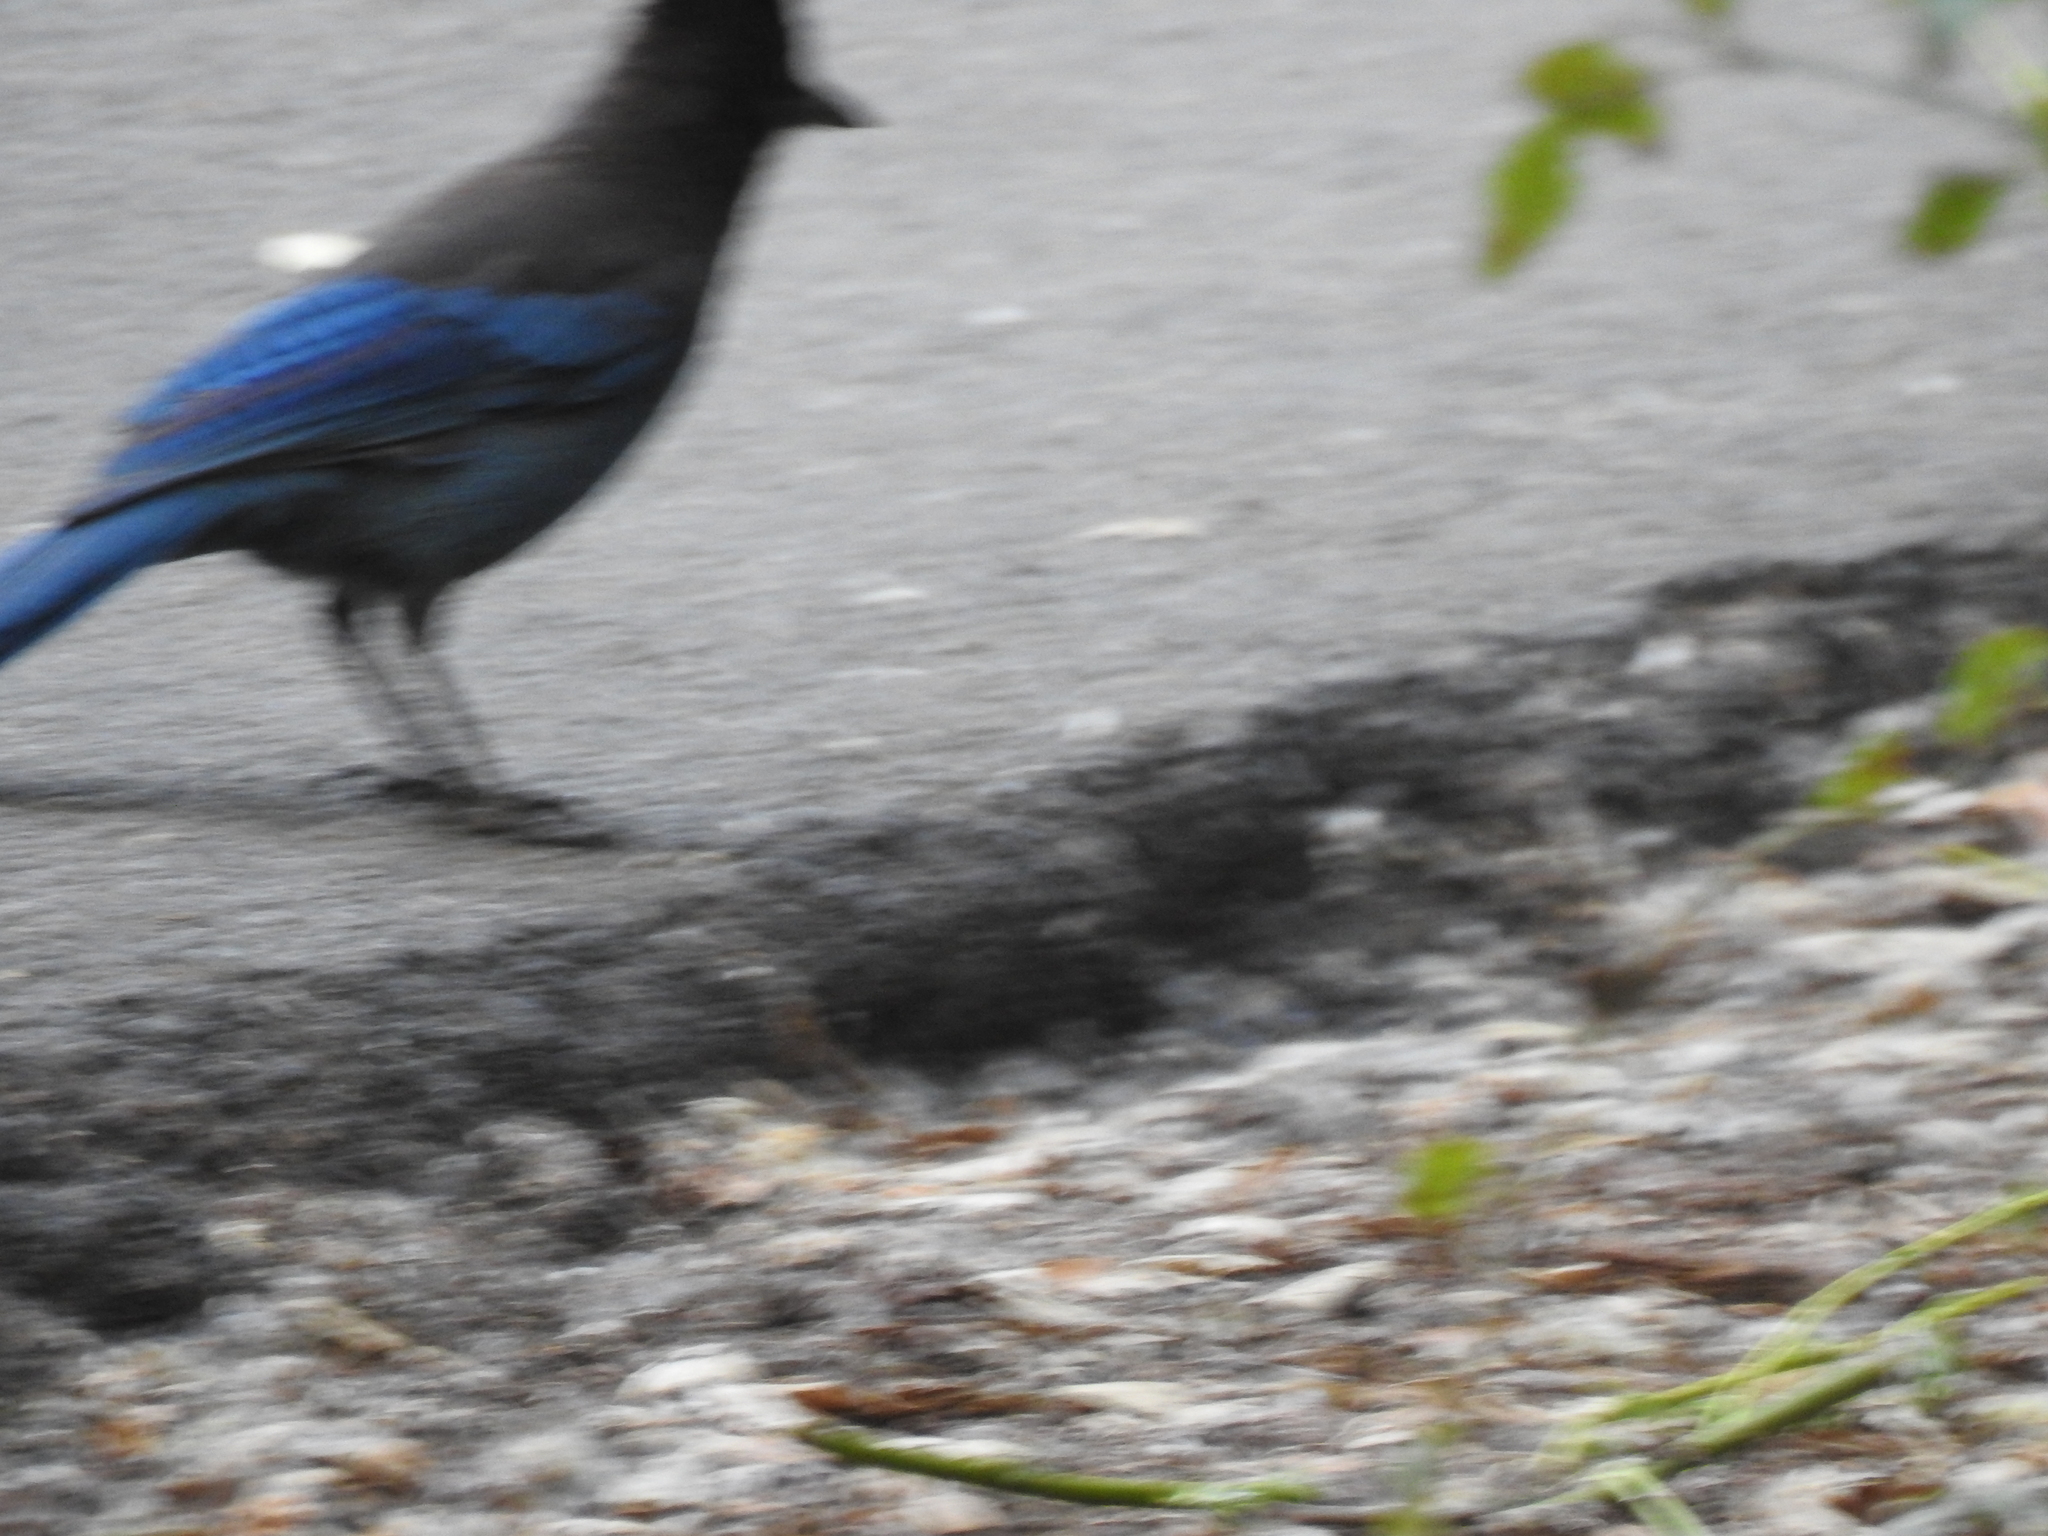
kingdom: Animalia
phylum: Chordata
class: Aves
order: Passeriformes
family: Corvidae
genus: Cyanocitta
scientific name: Cyanocitta stelleri
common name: Steller's jay
